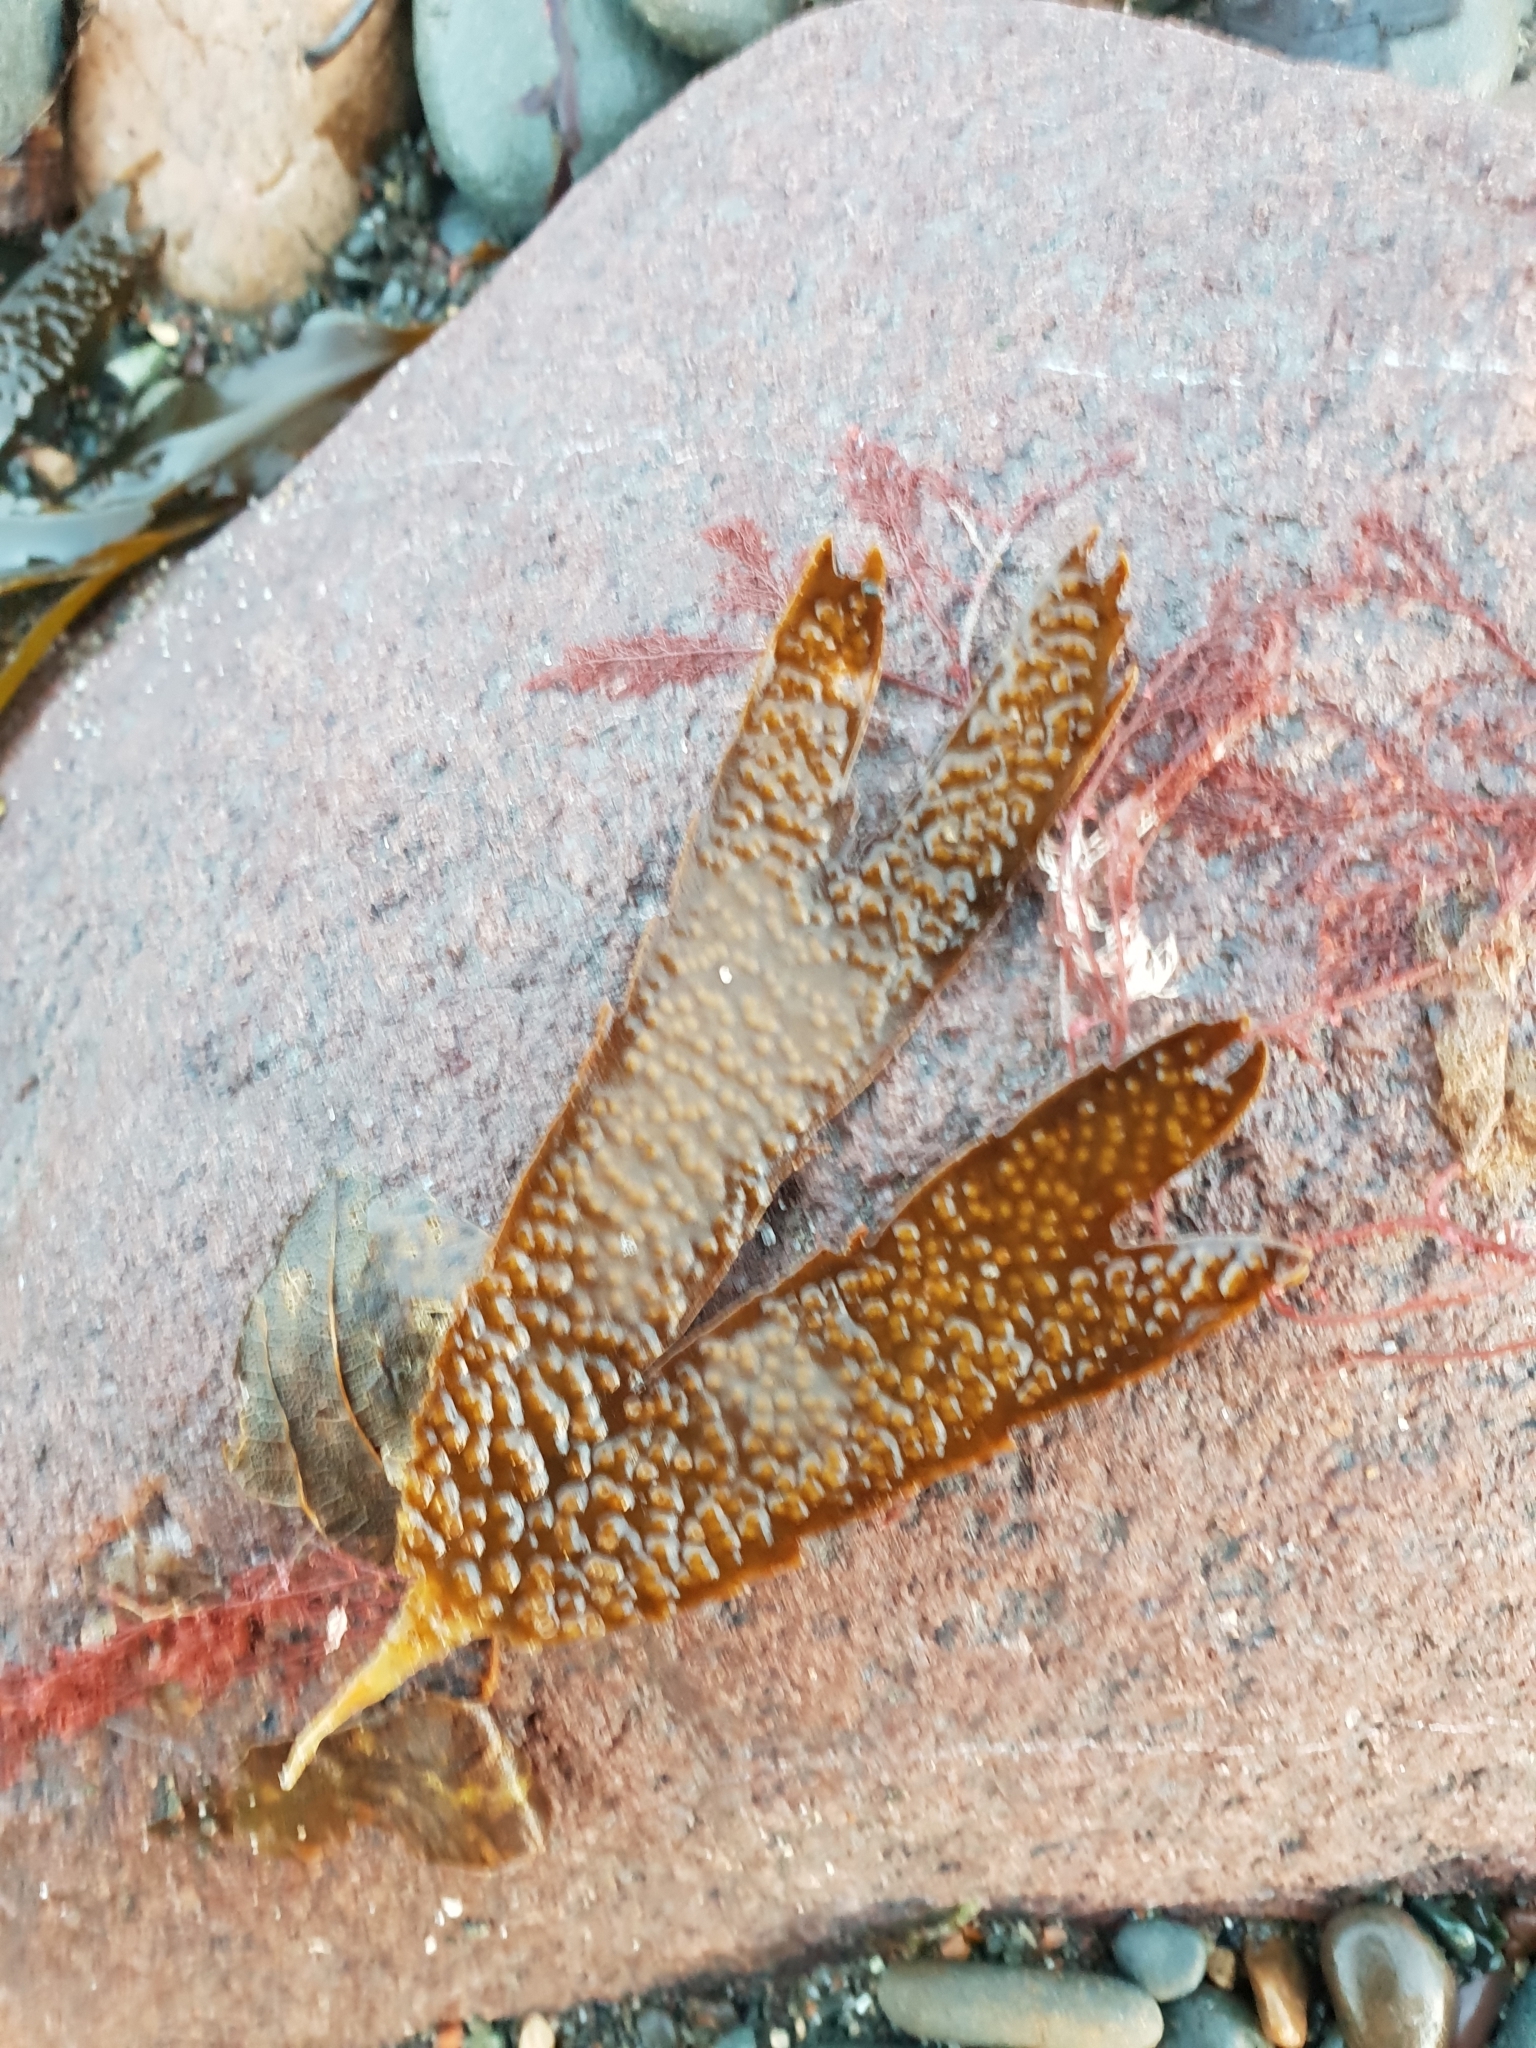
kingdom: Chromista
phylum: Ochrophyta
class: Phaeophyceae
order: Fucales
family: Fucaceae
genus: Fucus
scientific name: Fucus serratus
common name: Toothed wrack
